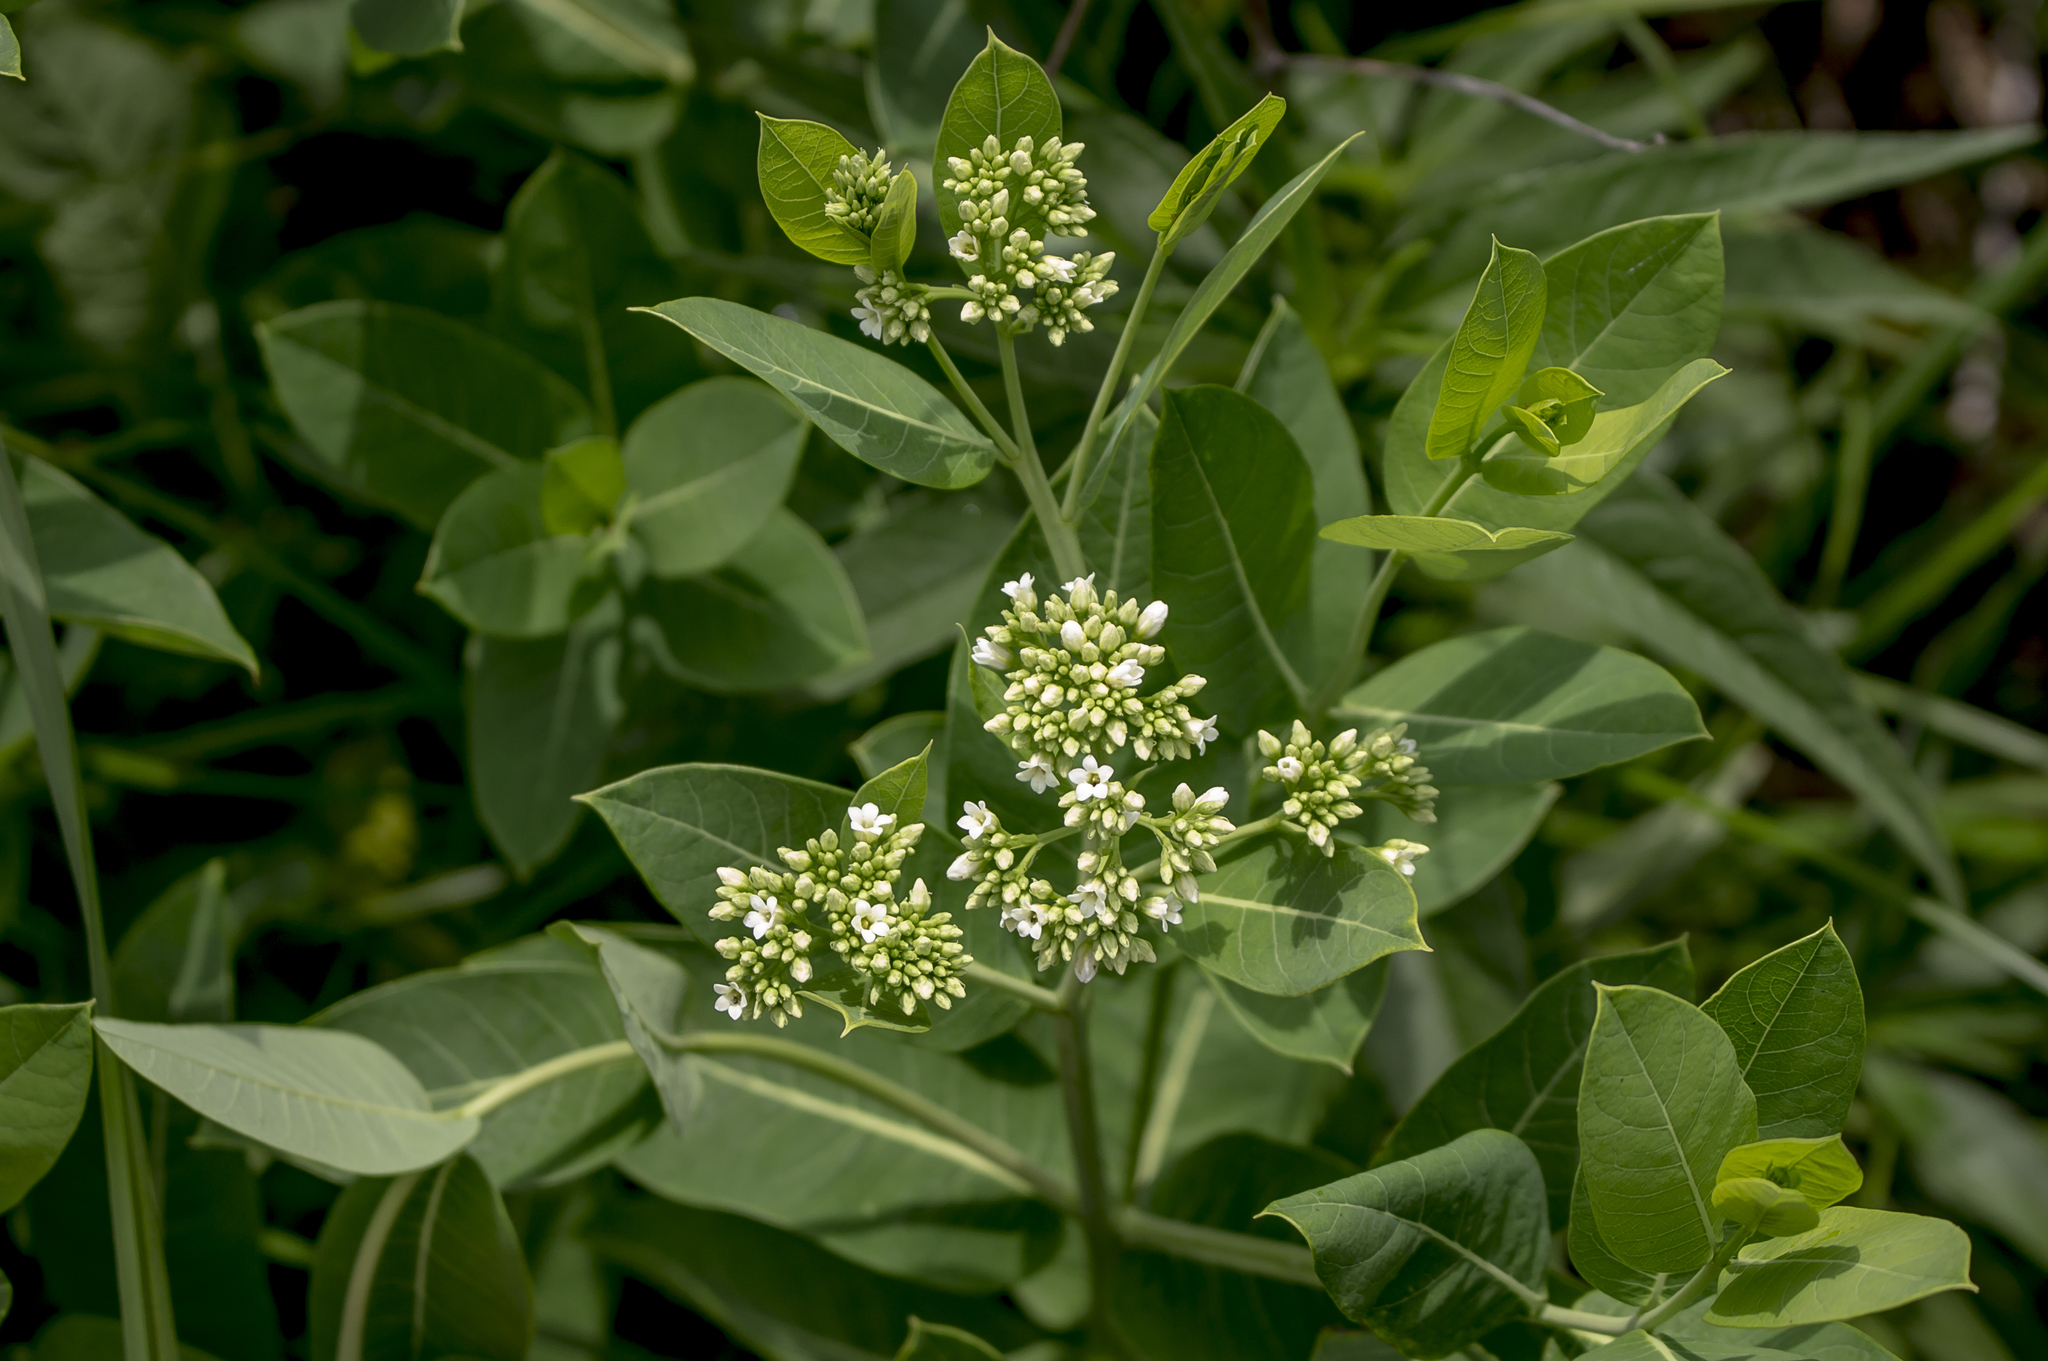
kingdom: Plantae
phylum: Tracheophyta
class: Magnoliopsida
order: Gentianales
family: Apocynaceae
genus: Apocynum
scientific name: Apocynum cannabinum
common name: Hemp dogbane
